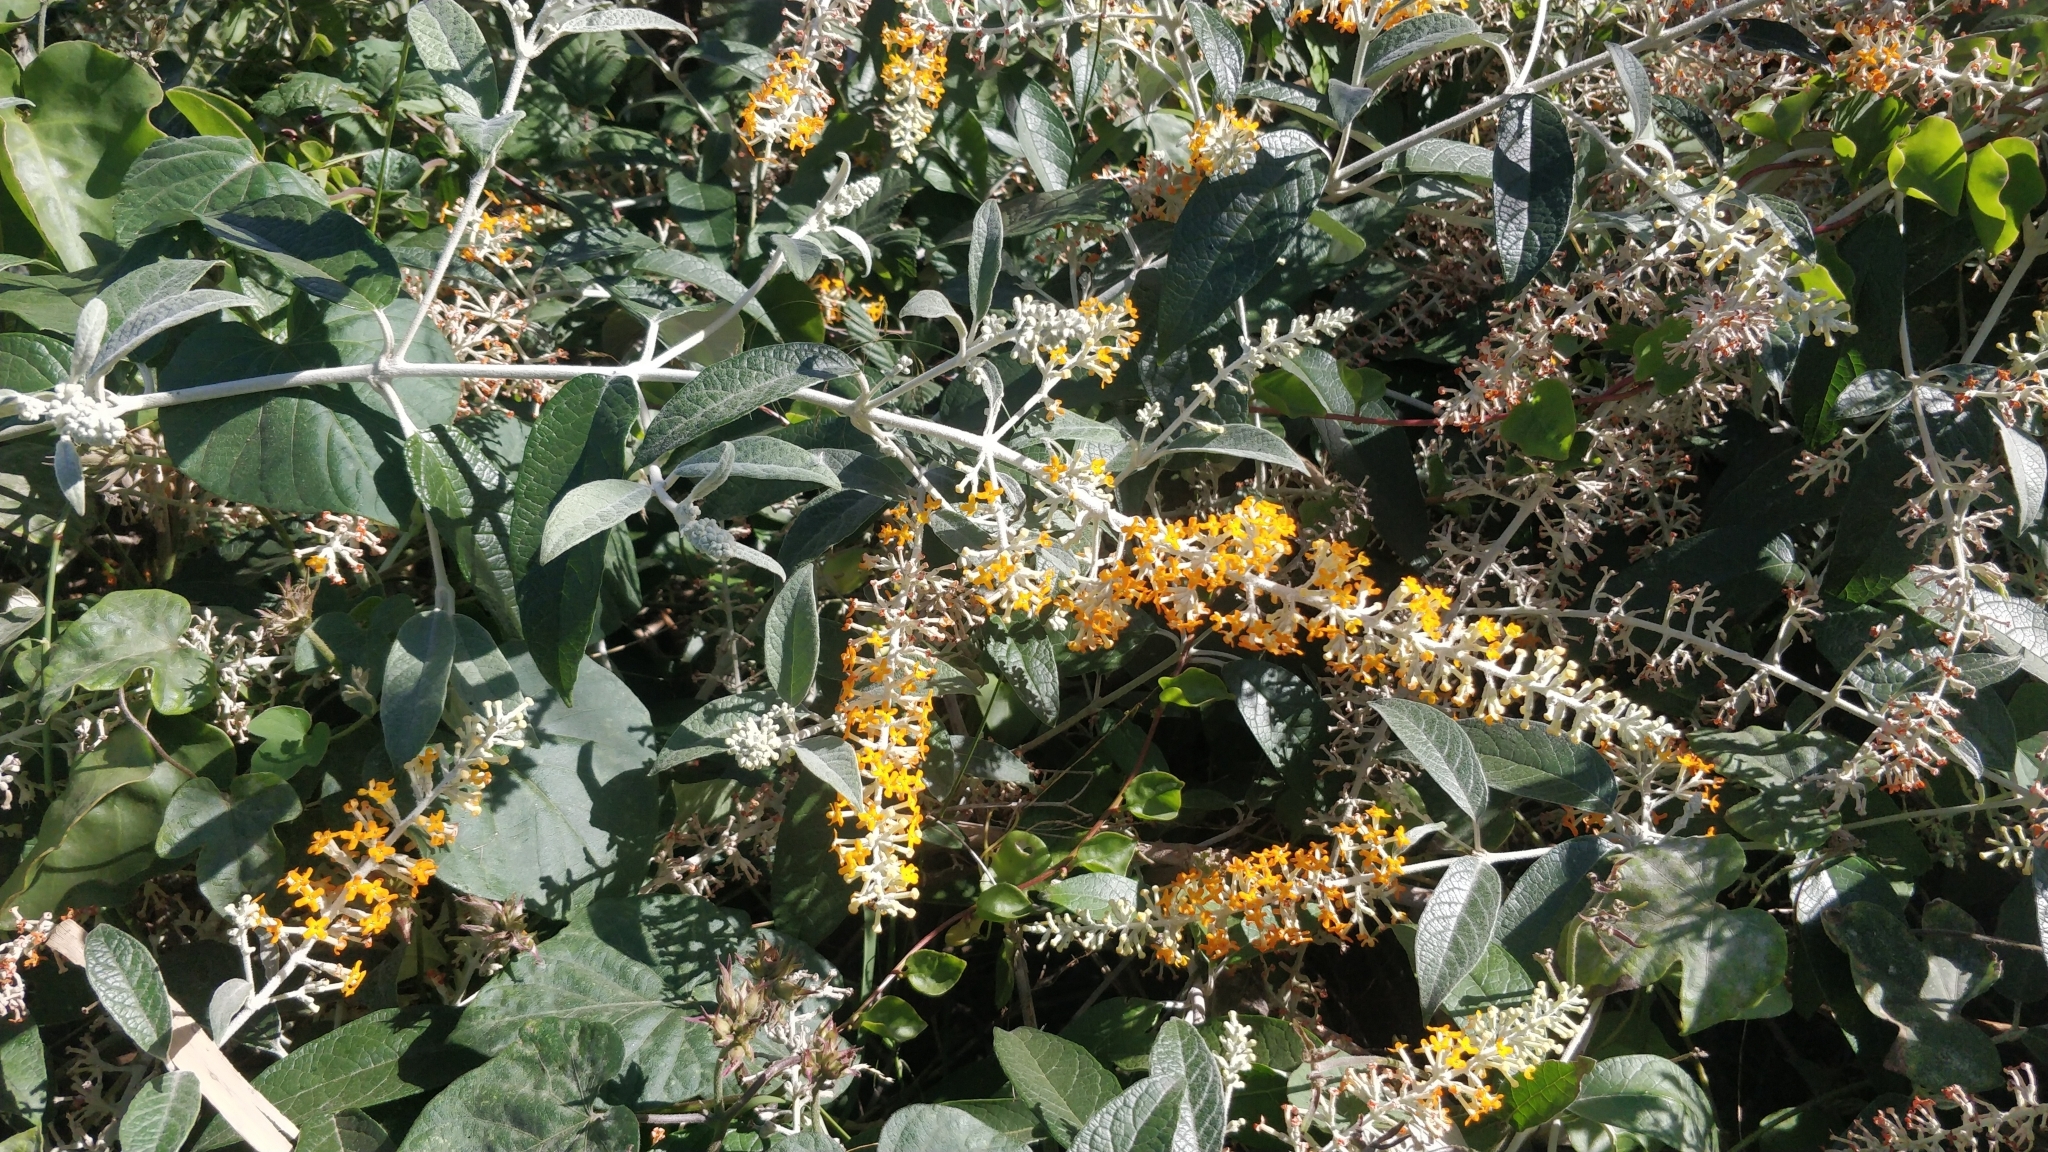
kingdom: Plantae
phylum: Tracheophyta
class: Magnoliopsida
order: Lamiales
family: Scrophulariaceae
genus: Buddleja
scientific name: Buddleja madagascariensis
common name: Smokebush
